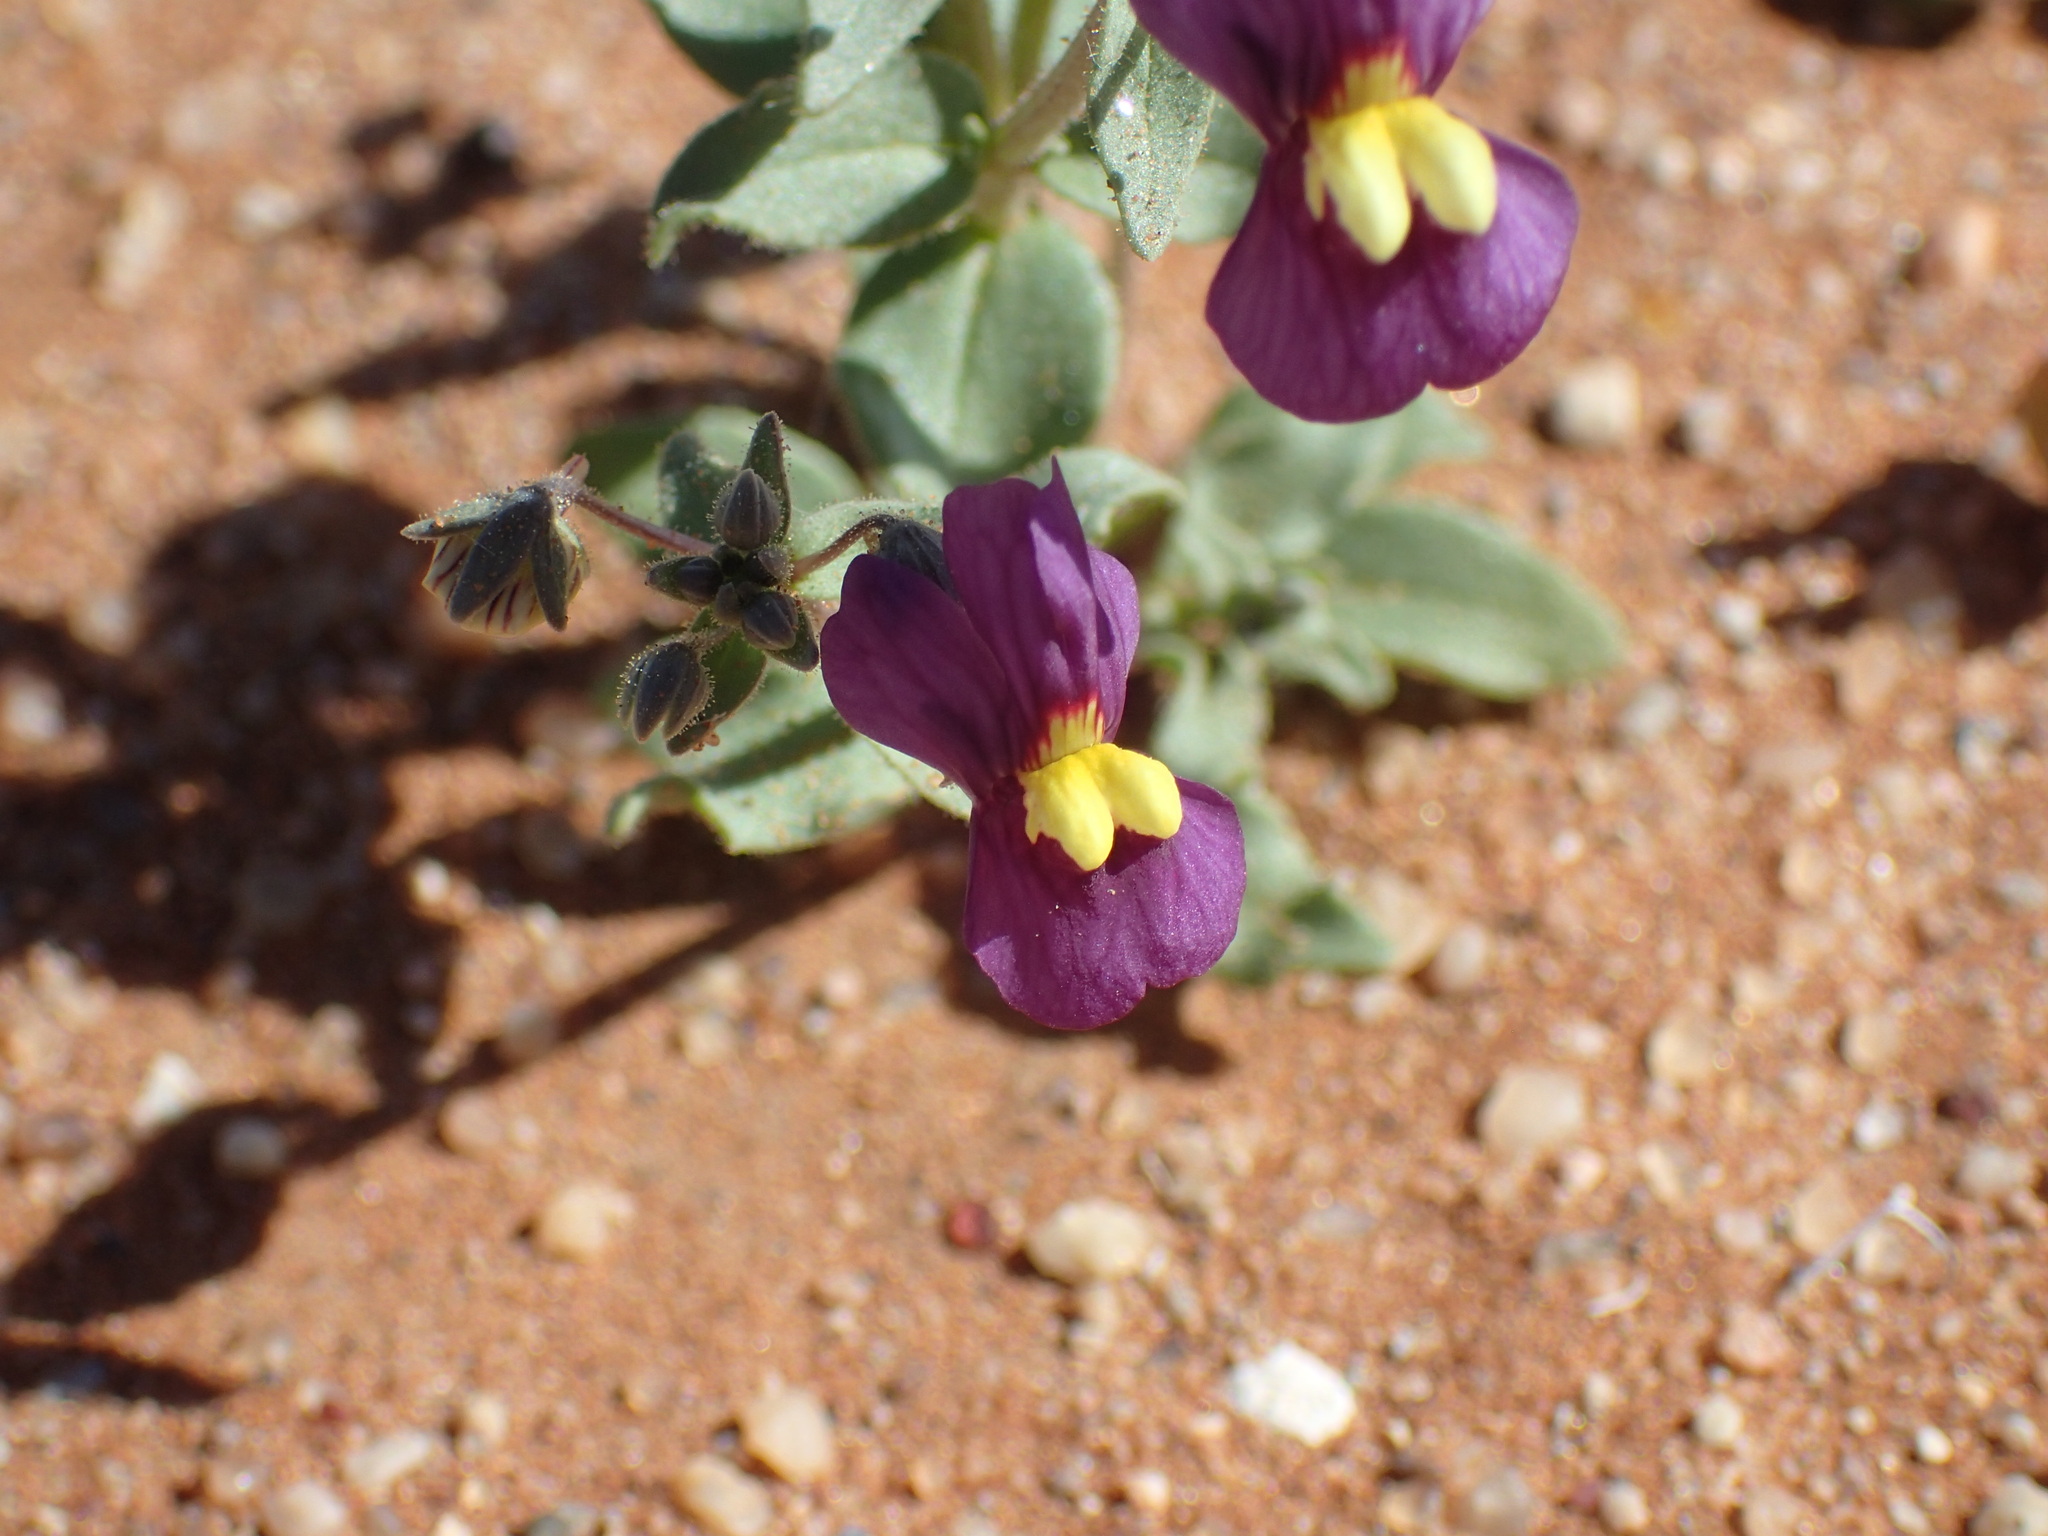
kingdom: Plantae
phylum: Tracheophyta
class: Magnoliopsida
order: Lamiales
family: Scrophulariaceae
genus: Nemesia
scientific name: Nemesia fleckii
